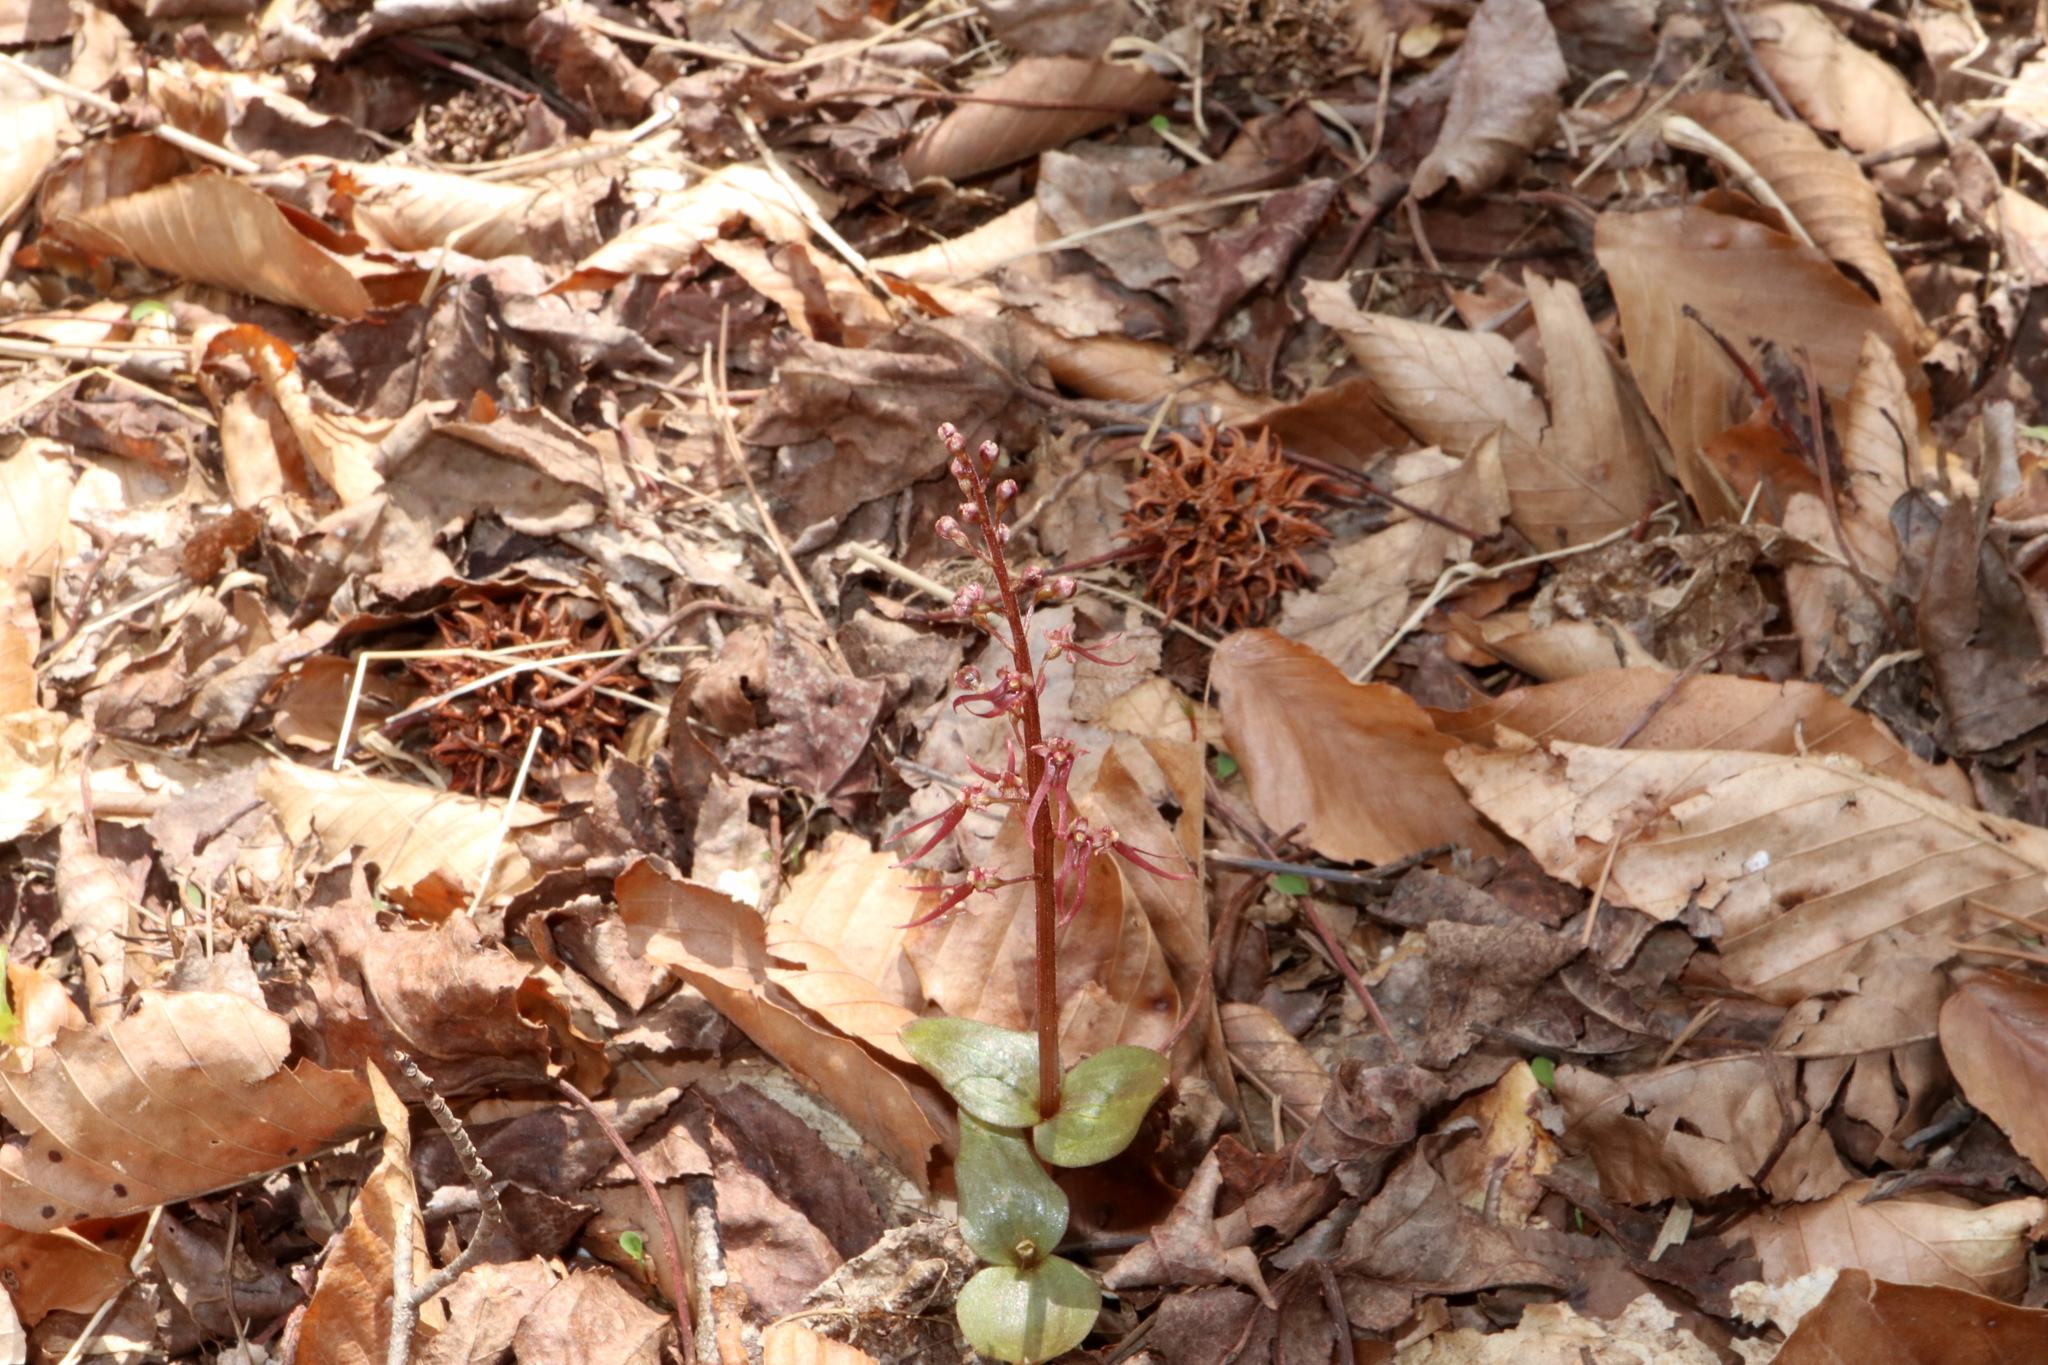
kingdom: Plantae
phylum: Tracheophyta
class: Liliopsida
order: Asparagales
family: Orchidaceae
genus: Neottia
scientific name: Neottia bifolia
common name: Southern twayblade
